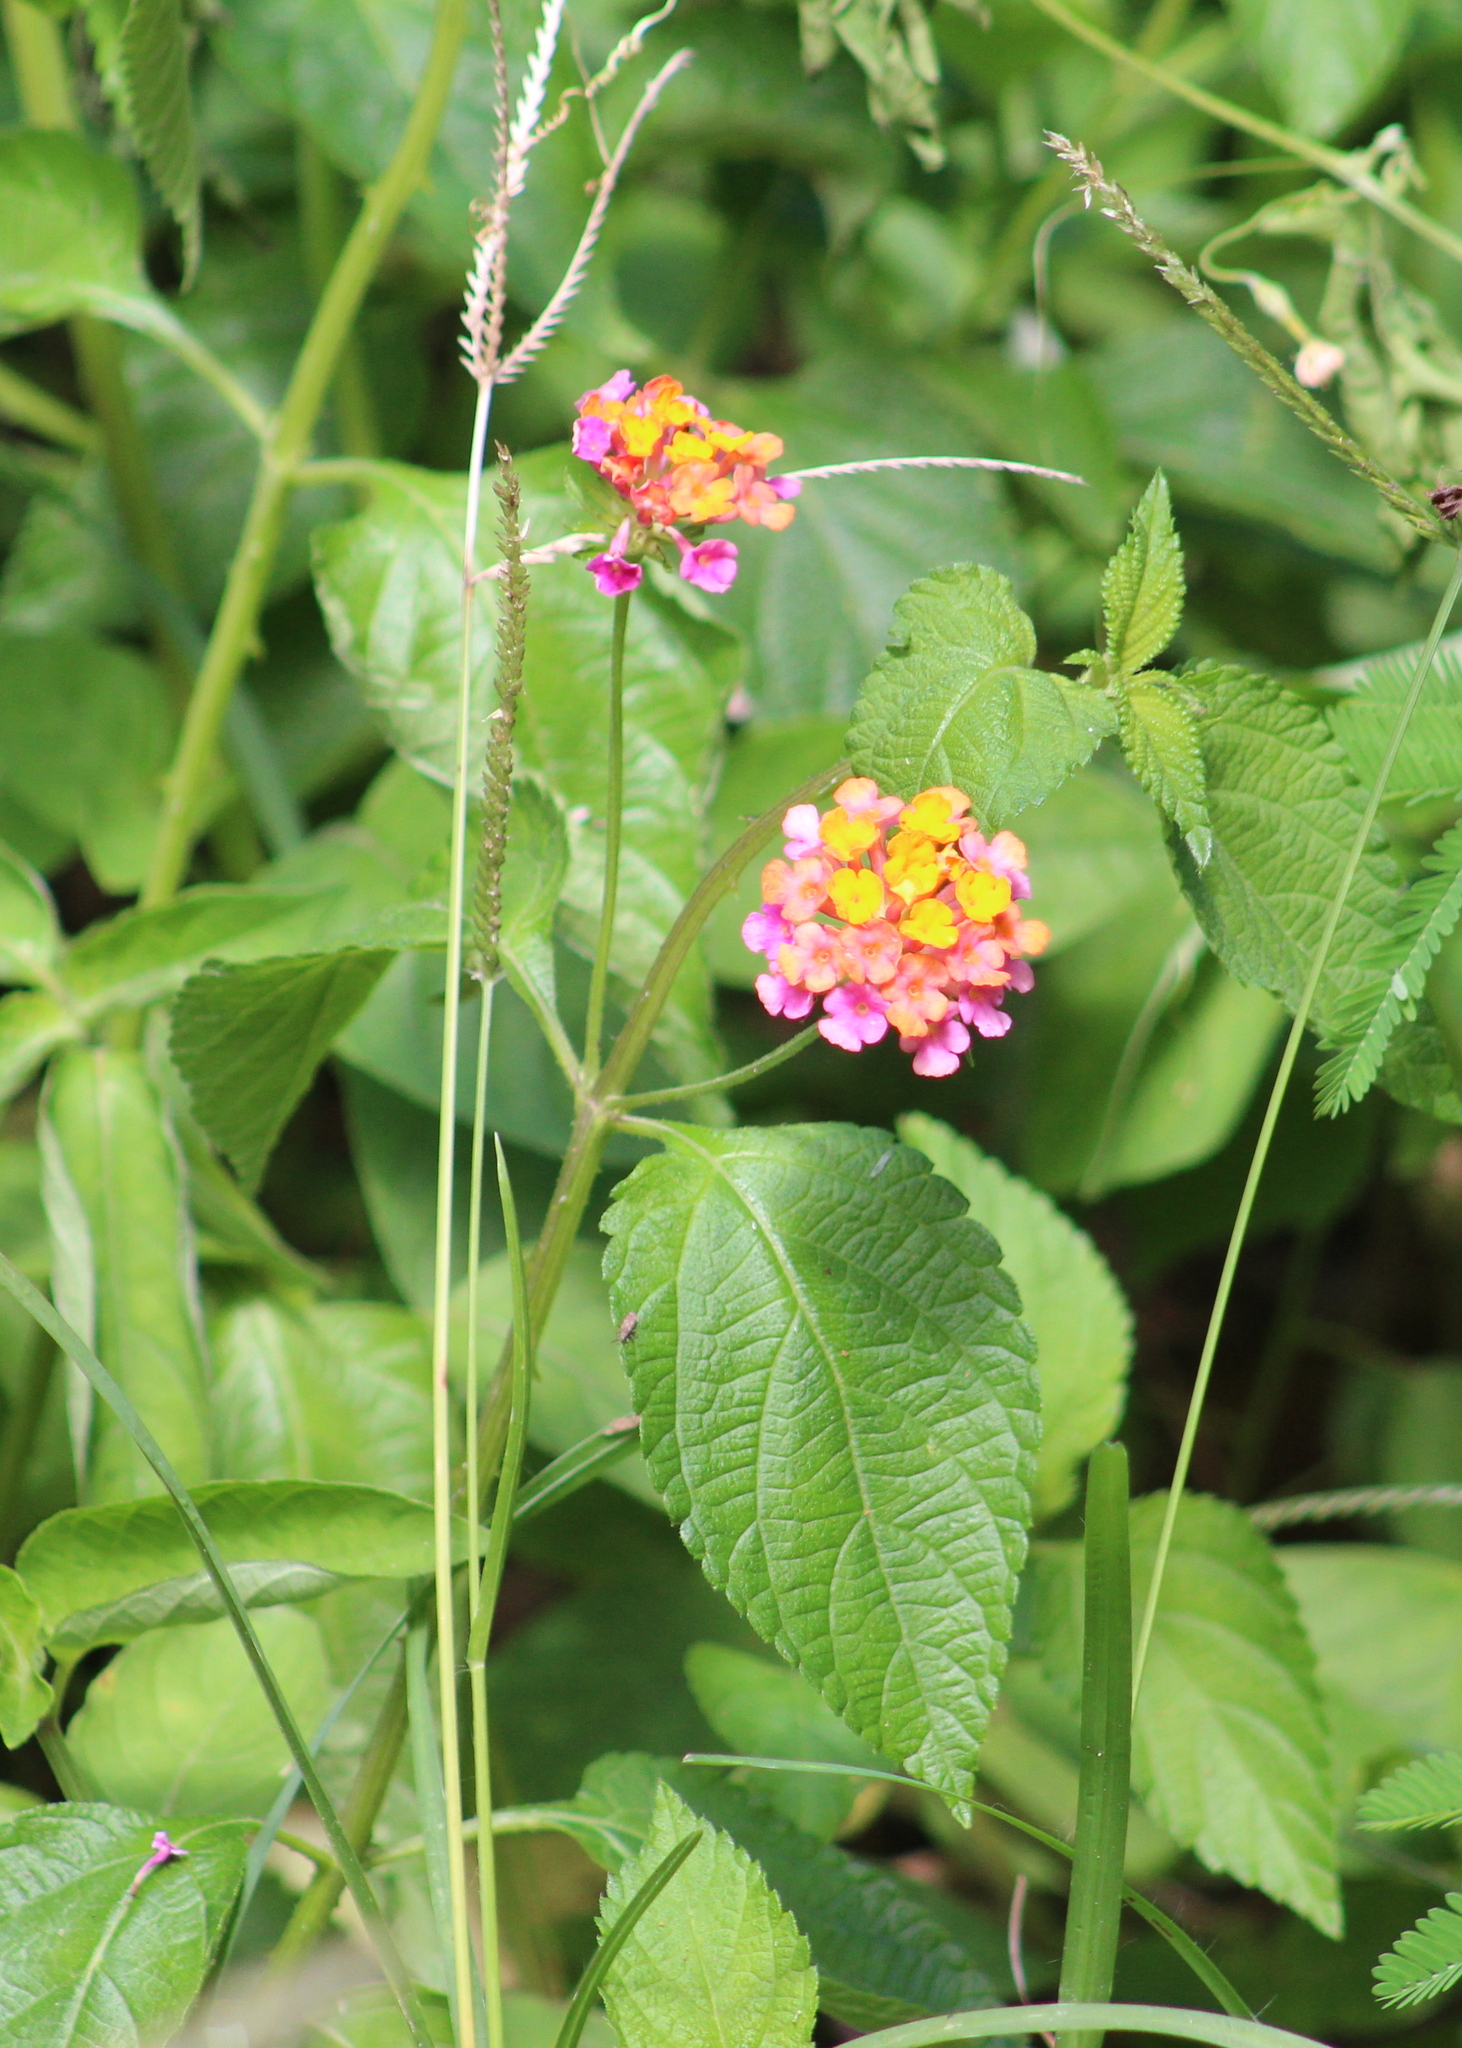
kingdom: Plantae
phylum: Tracheophyta
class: Magnoliopsida
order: Lamiales
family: Verbenaceae
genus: Lantana
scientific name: Lantana camara
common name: Lantana
